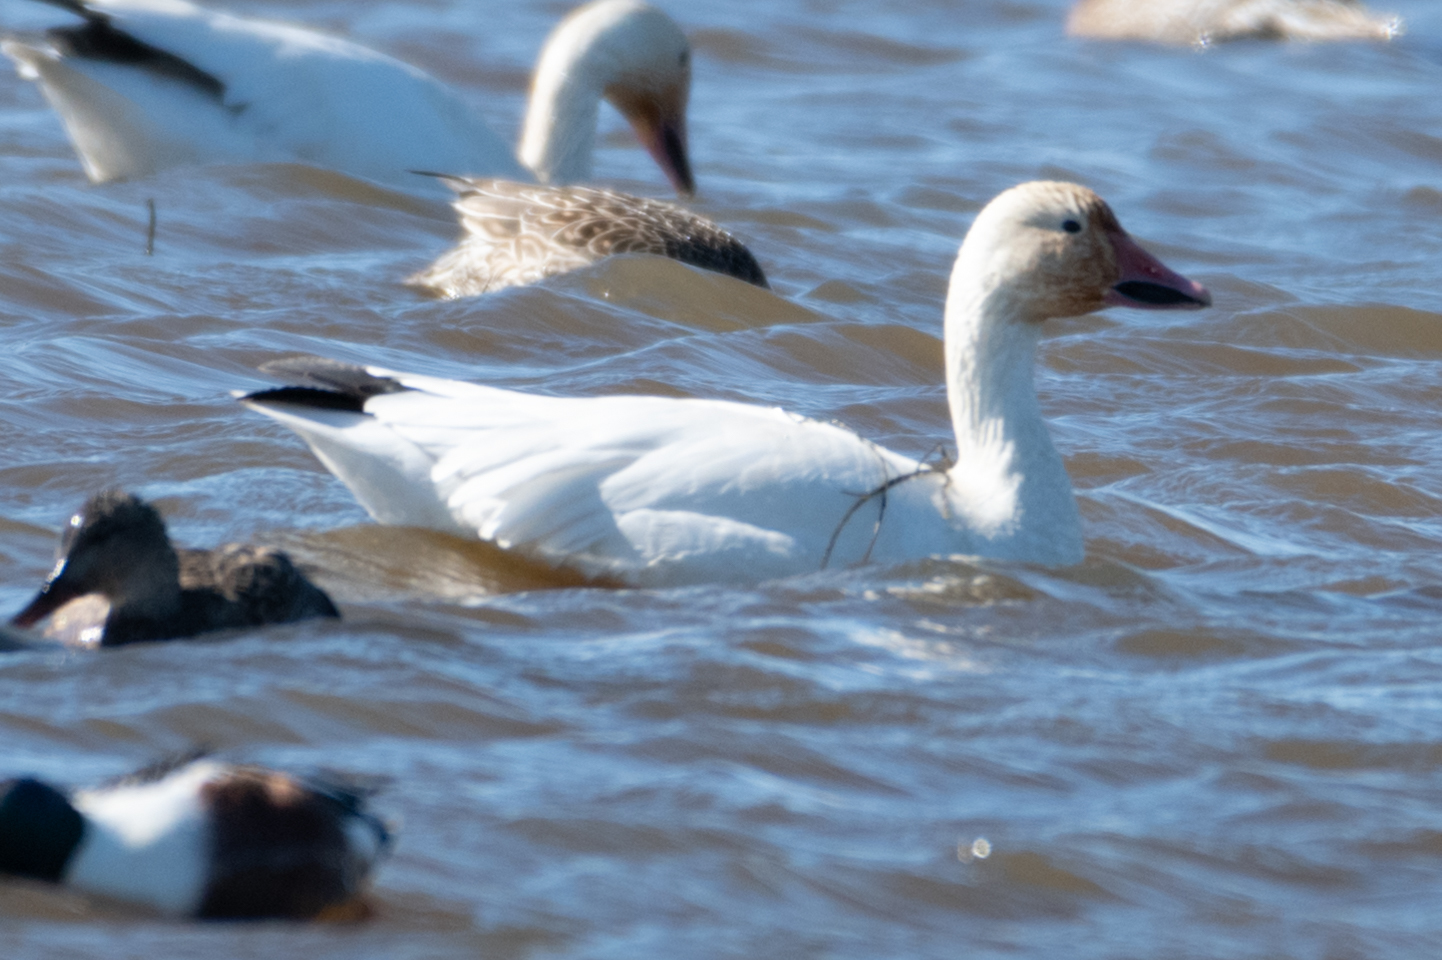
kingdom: Animalia
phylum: Chordata
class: Aves
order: Anseriformes
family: Anatidae
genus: Anser
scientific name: Anser caerulescens
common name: Snow goose
